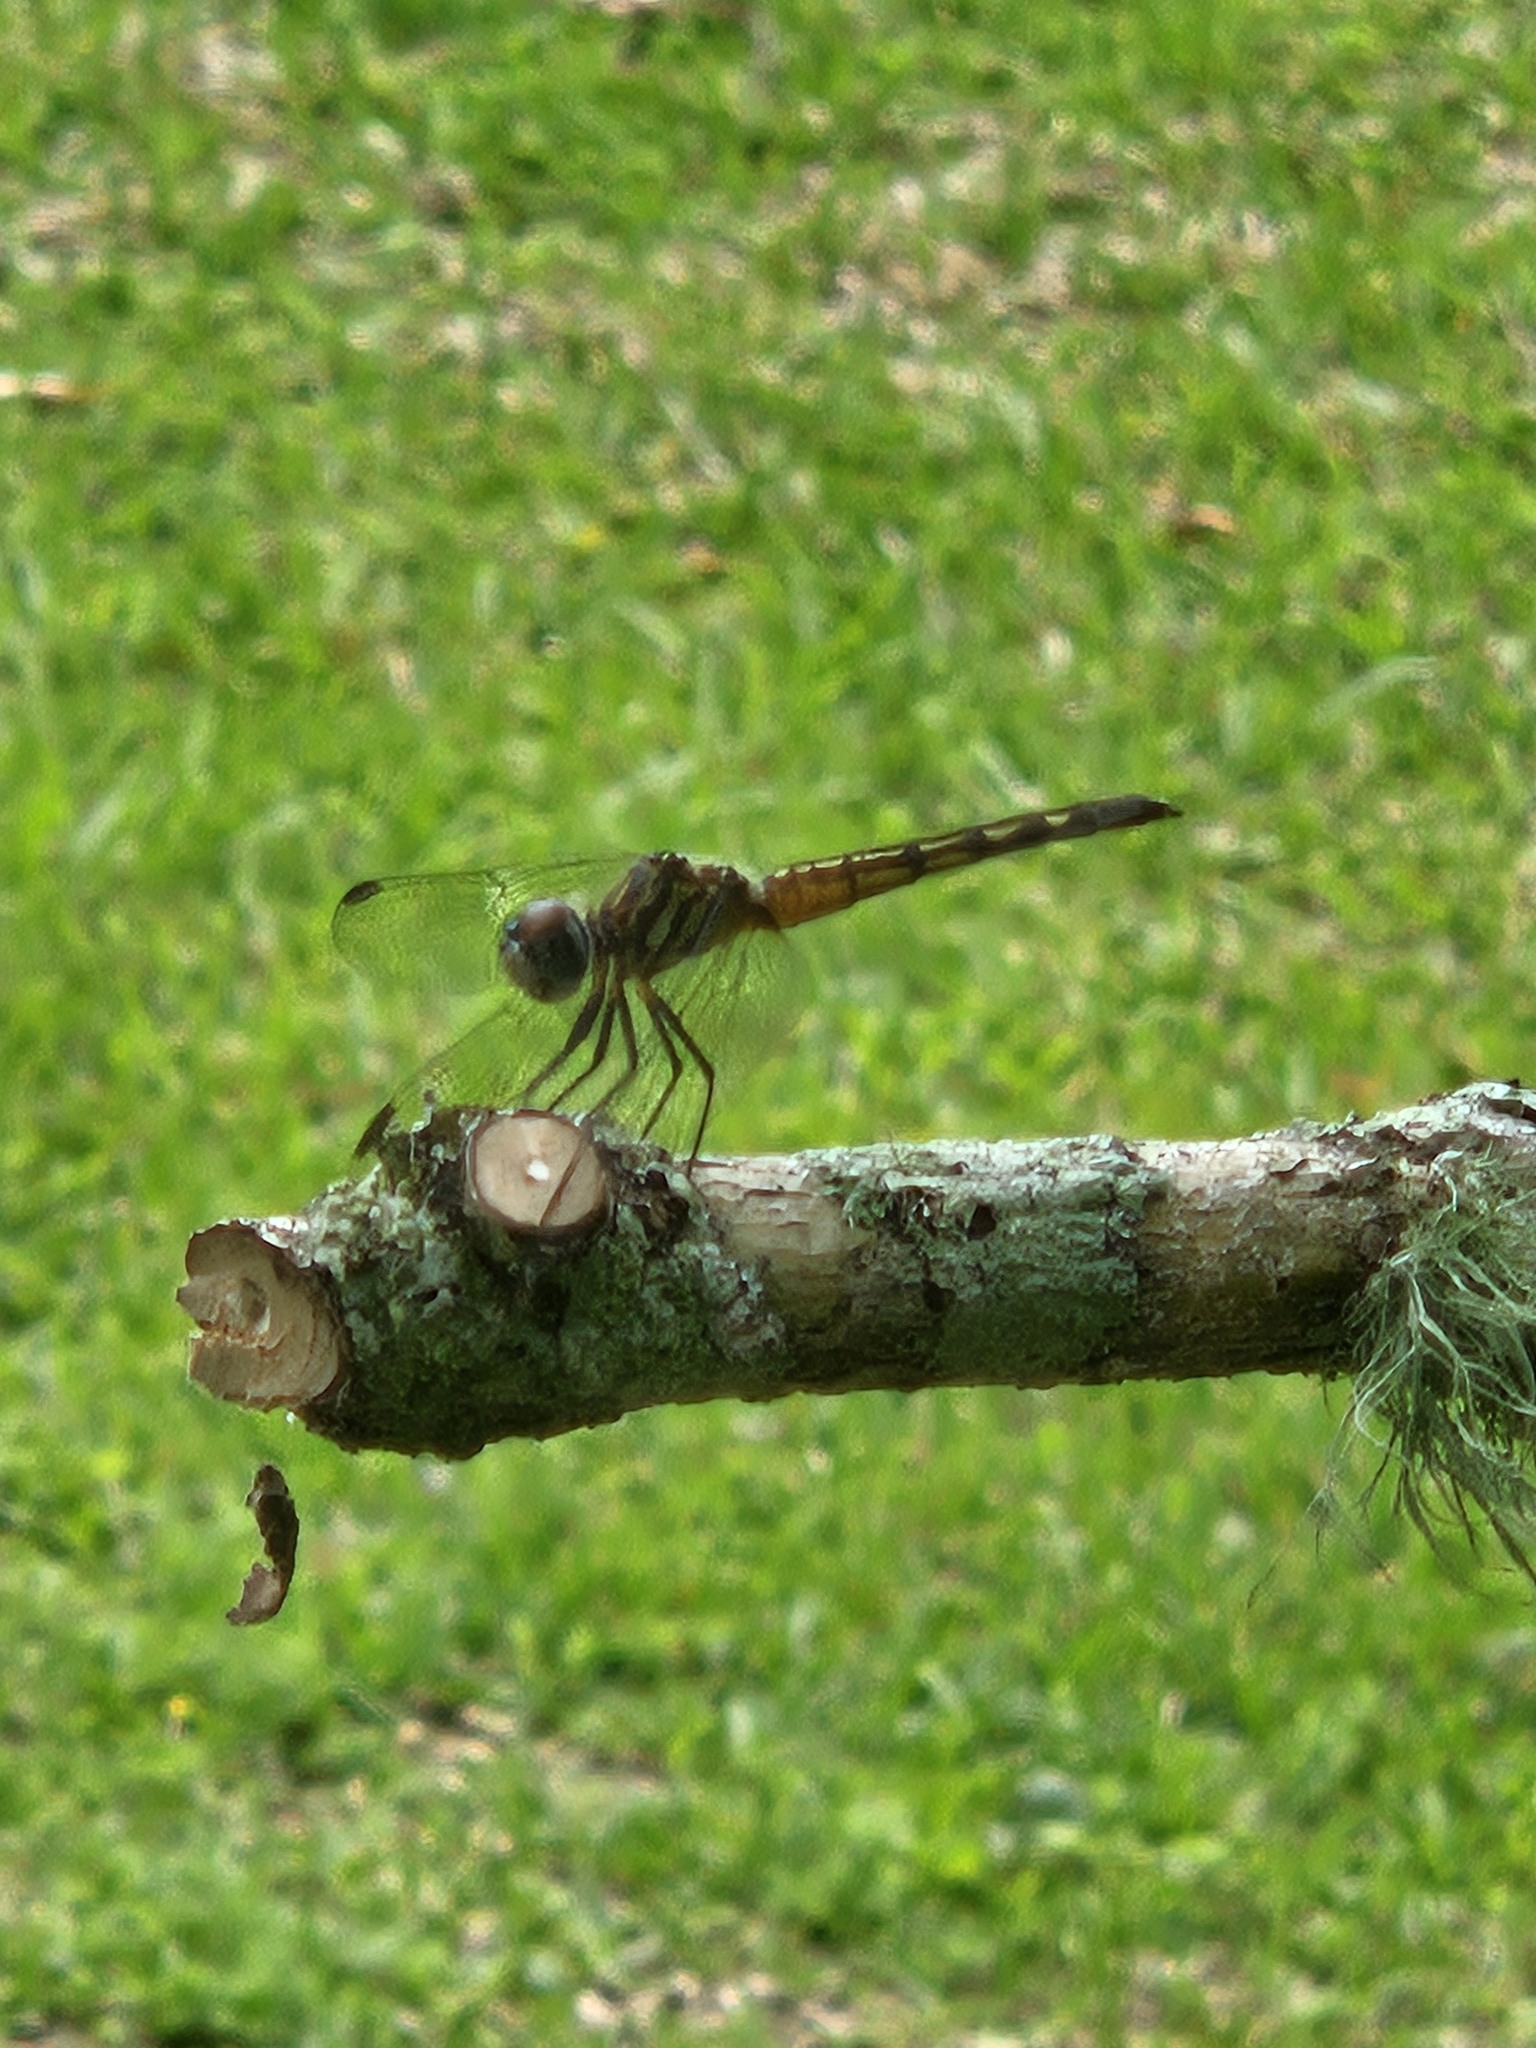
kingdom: Animalia
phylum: Arthropoda
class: Insecta
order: Odonata
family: Libellulidae
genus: Pachydiplax
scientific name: Pachydiplax longipennis
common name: Blue dasher
